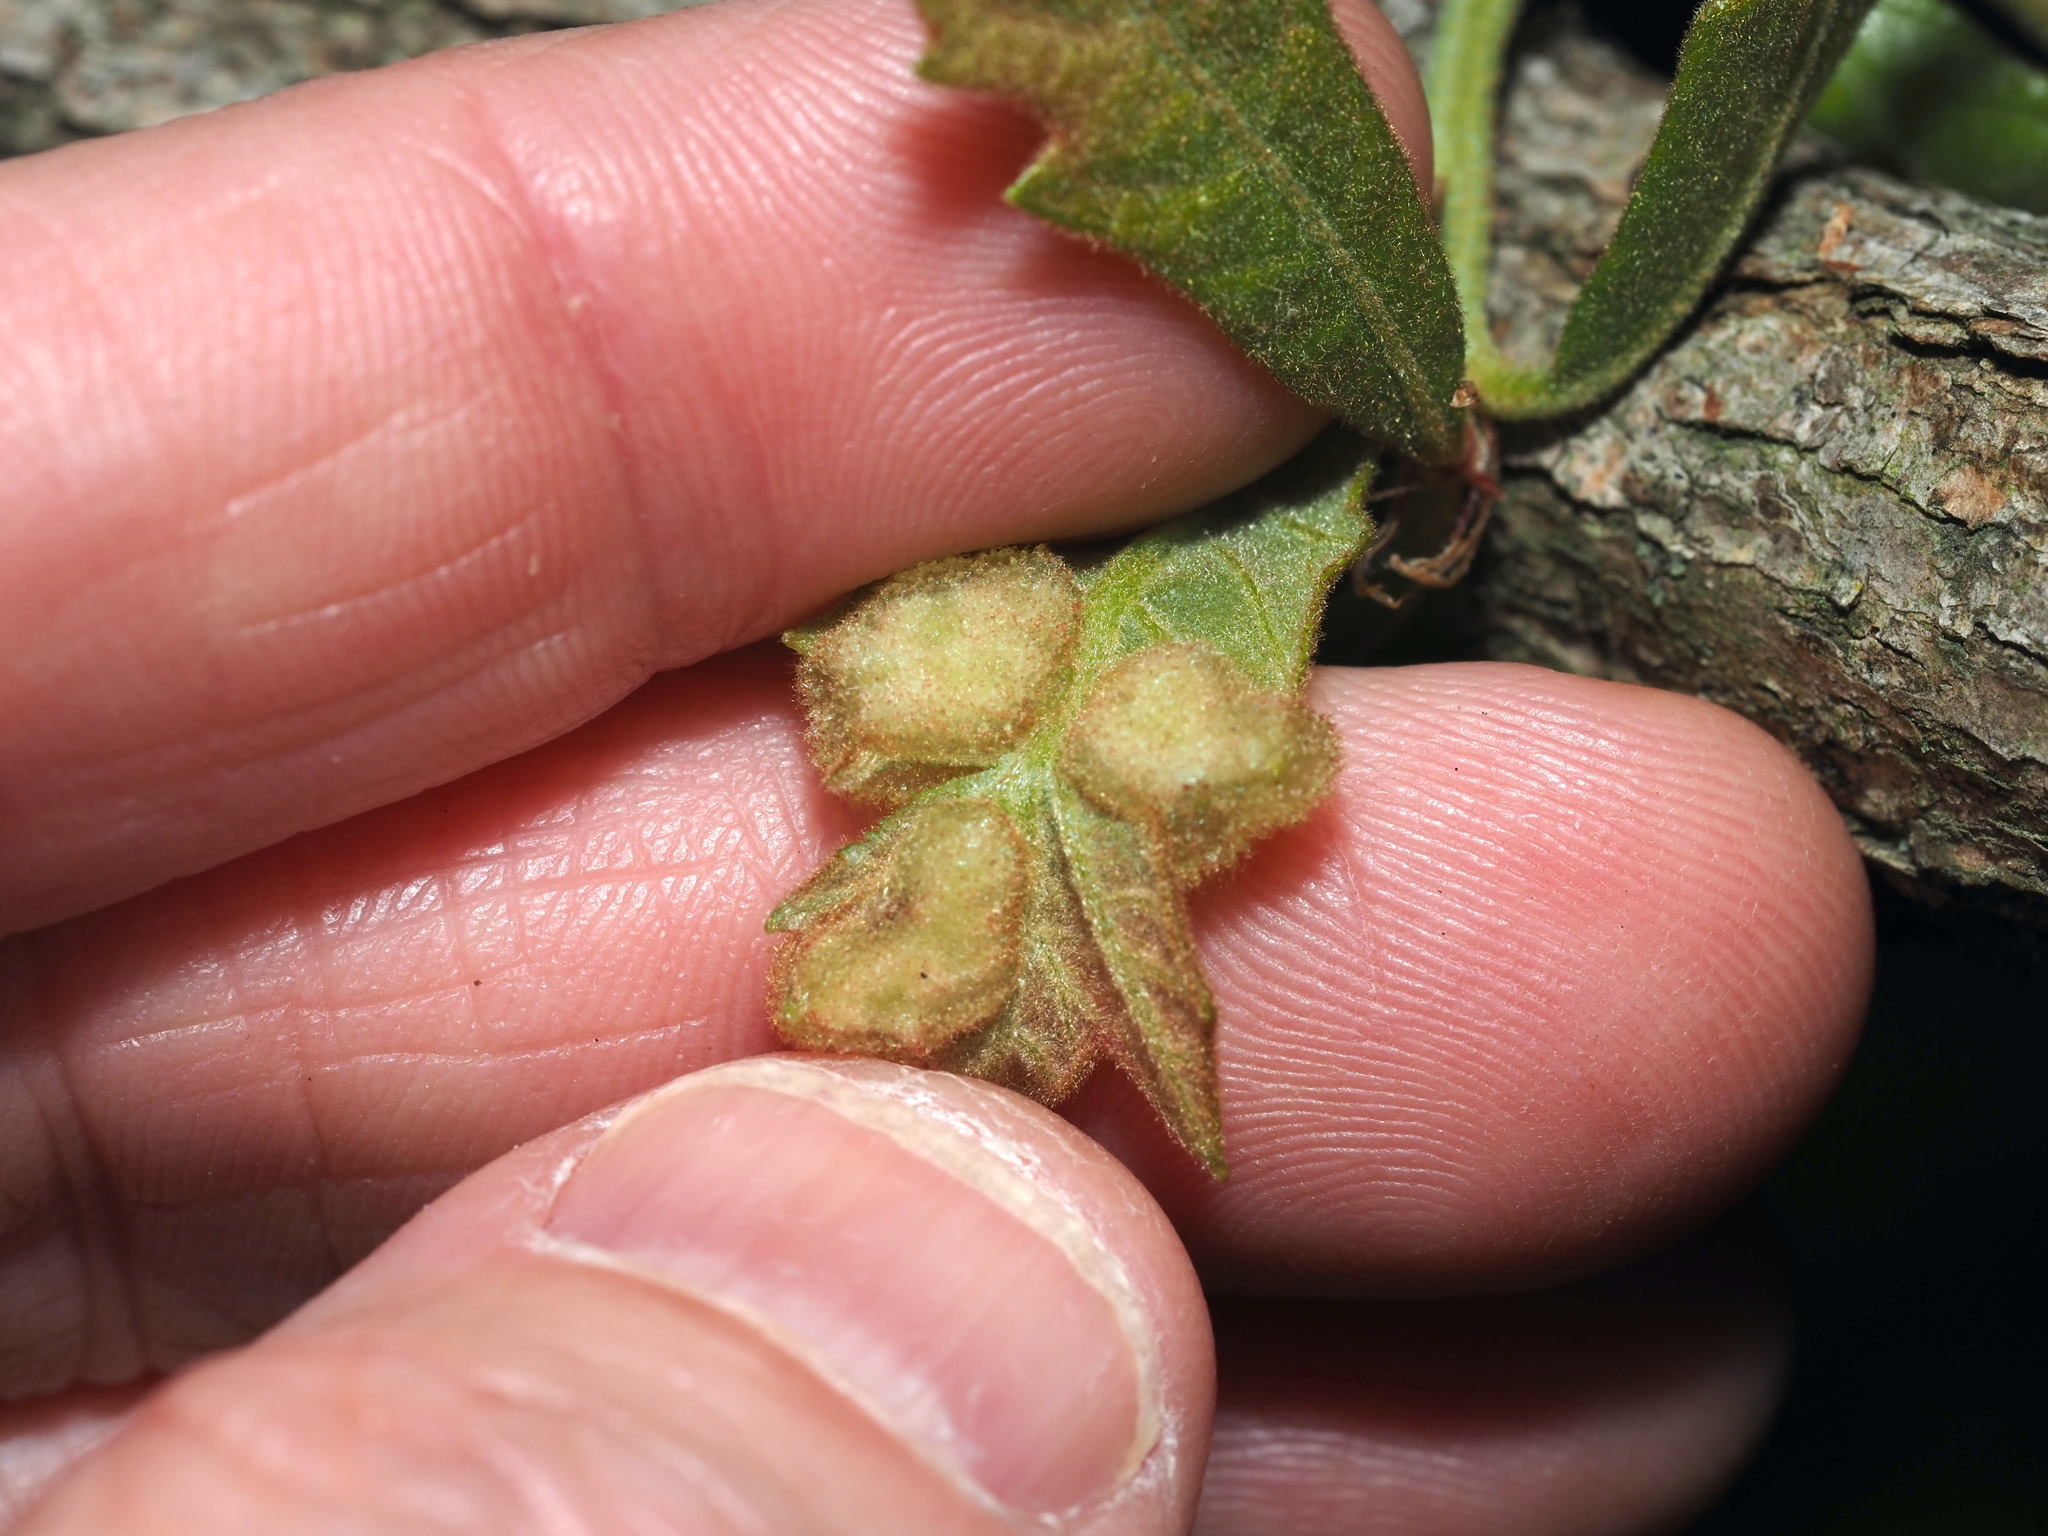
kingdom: Animalia
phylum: Arthropoda
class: Insecta
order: Hymenoptera
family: Cynipidae
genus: Neuroterus
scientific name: Neuroterus quercusirregularis
